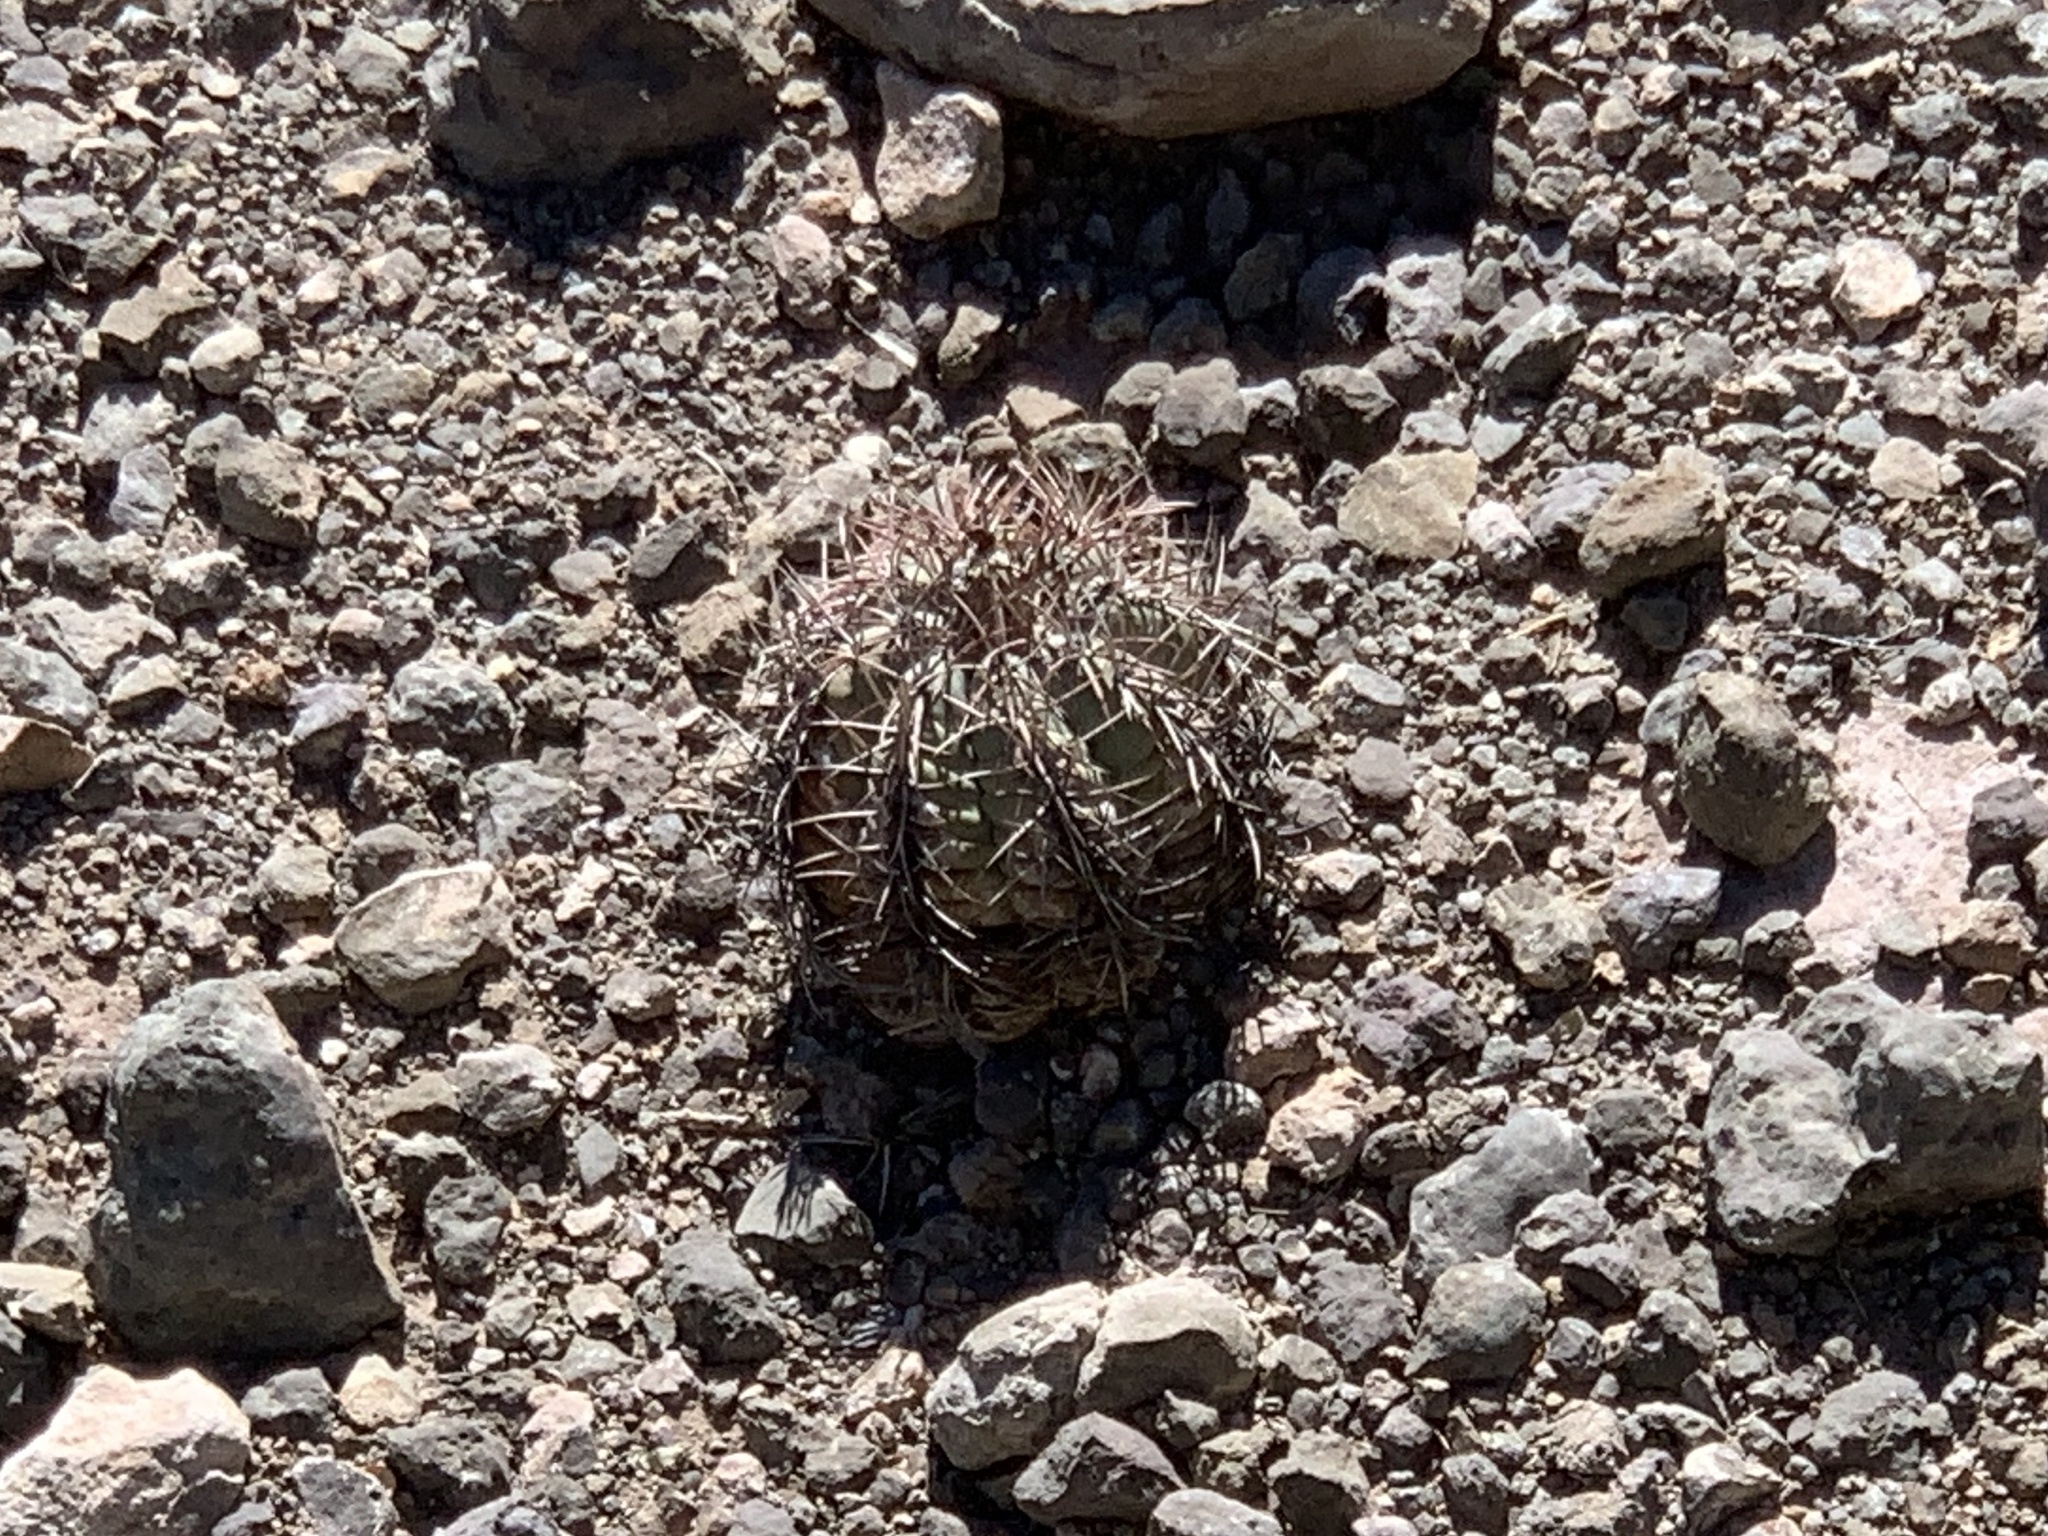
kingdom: Plantae
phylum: Tracheophyta
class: Magnoliopsida
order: Caryophyllales
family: Cactaceae
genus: Echinocactus
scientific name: Echinocactus horizonthalonius
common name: Devilshead
